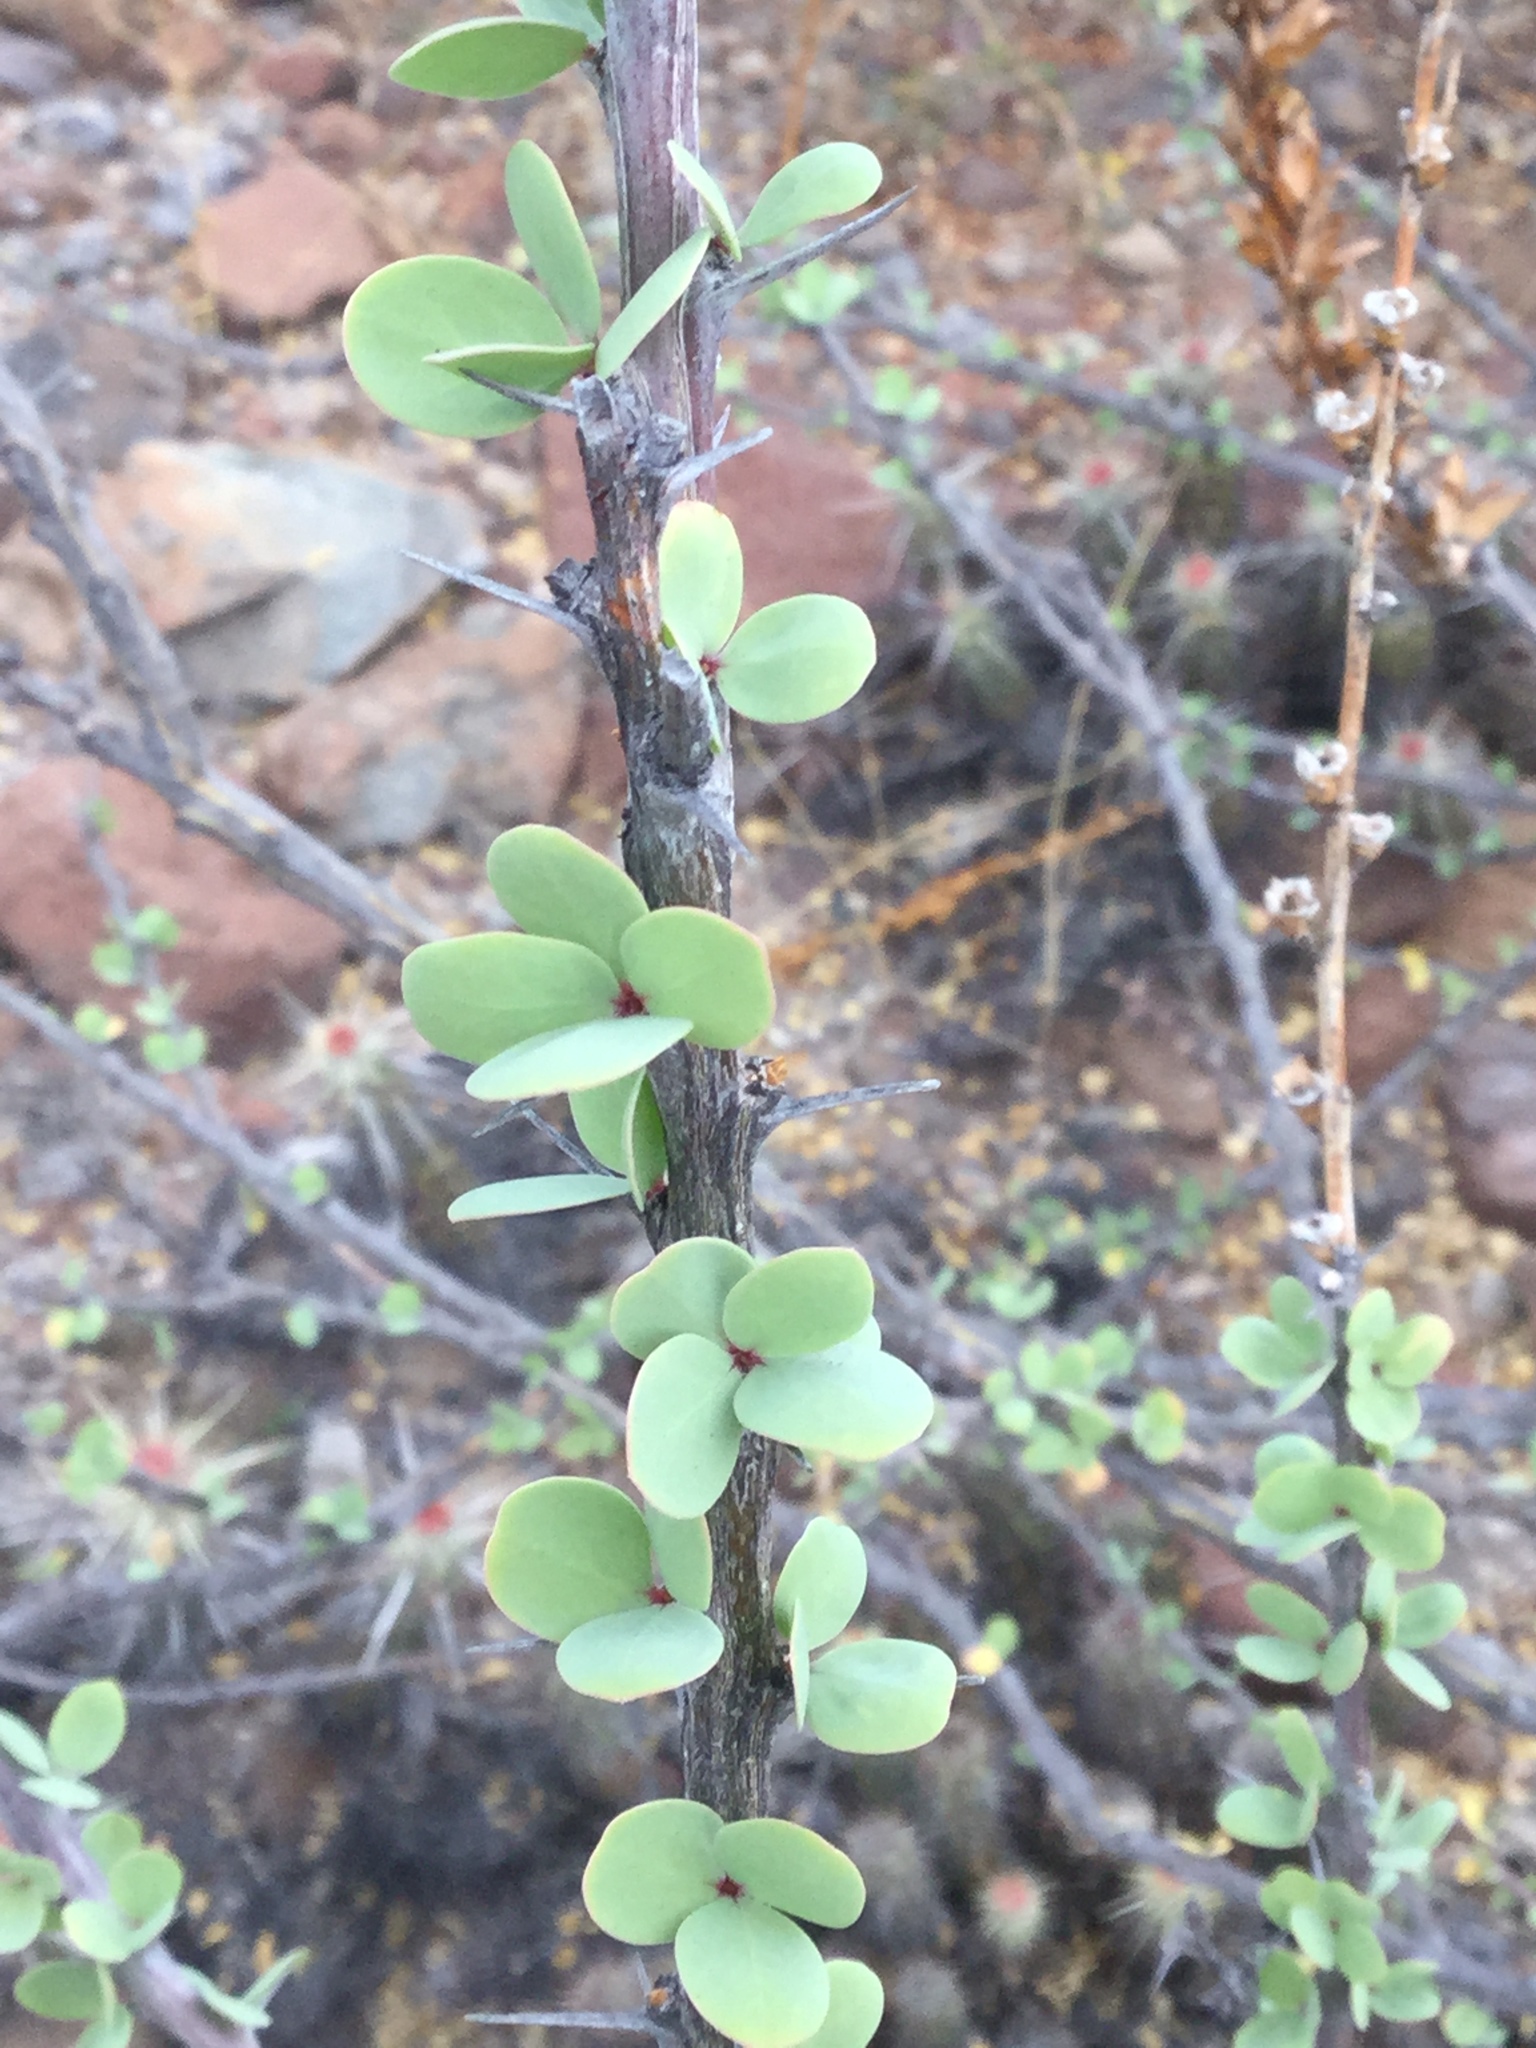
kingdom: Plantae
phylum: Tracheophyta
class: Magnoliopsida
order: Ericales
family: Fouquieriaceae
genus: Fouquieria
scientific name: Fouquieria burragei
